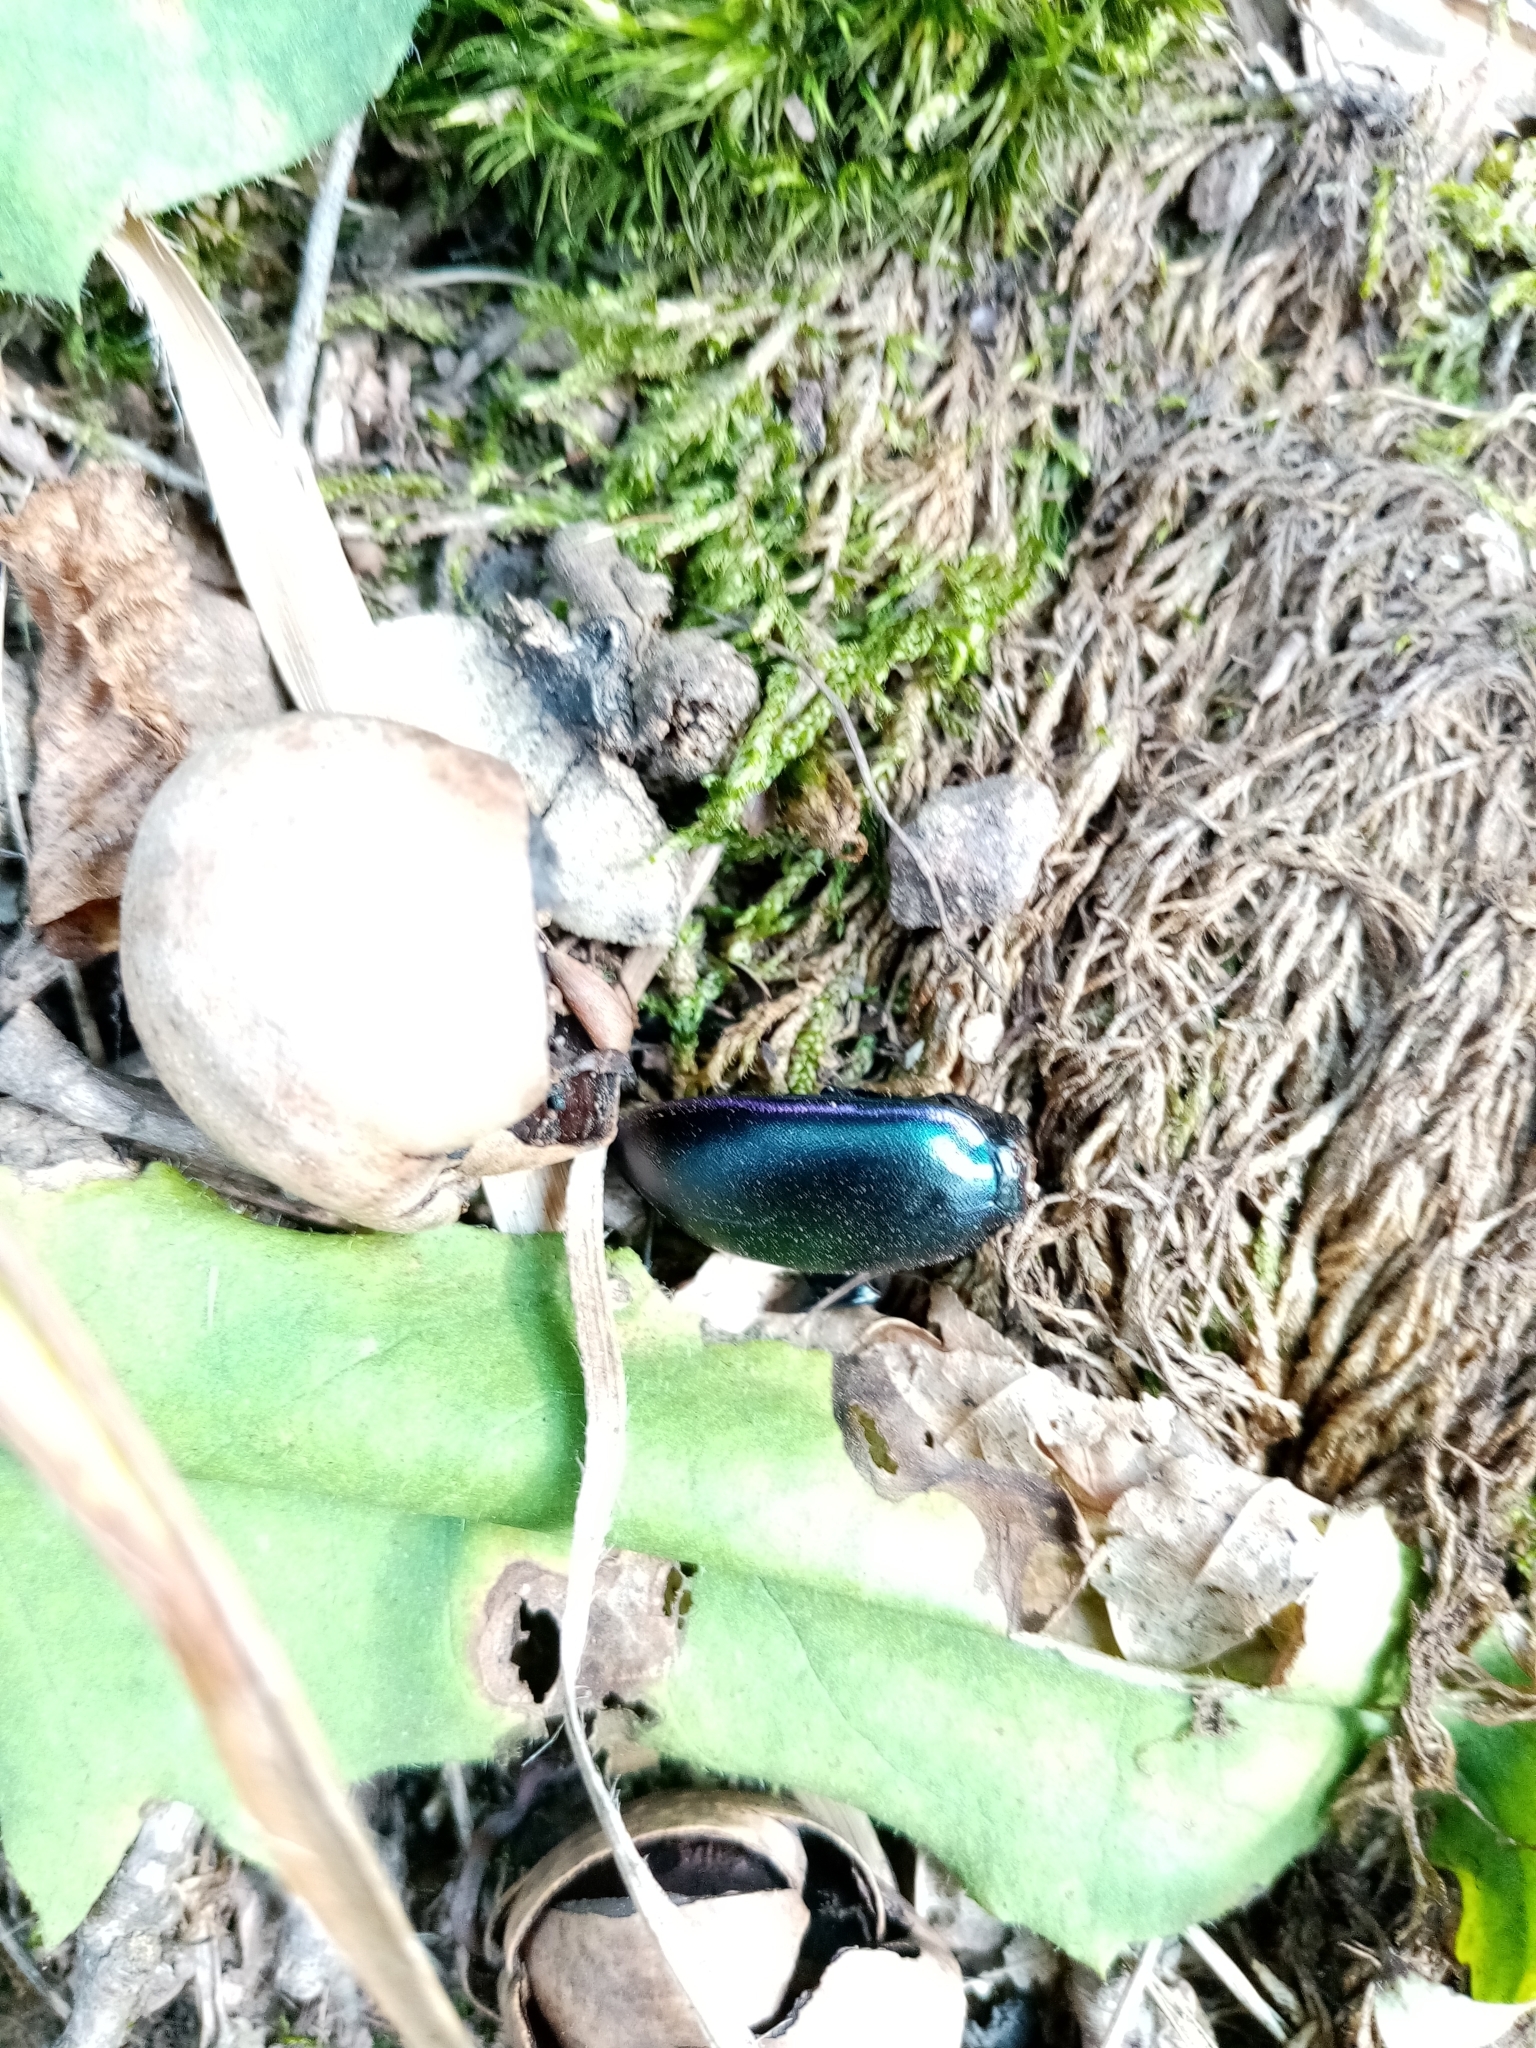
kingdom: Animalia
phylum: Arthropoda
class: Insecta
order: Coleoptera
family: Carabidae
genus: Carabus
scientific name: Carabus violaceus
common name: Violet ground beetle
